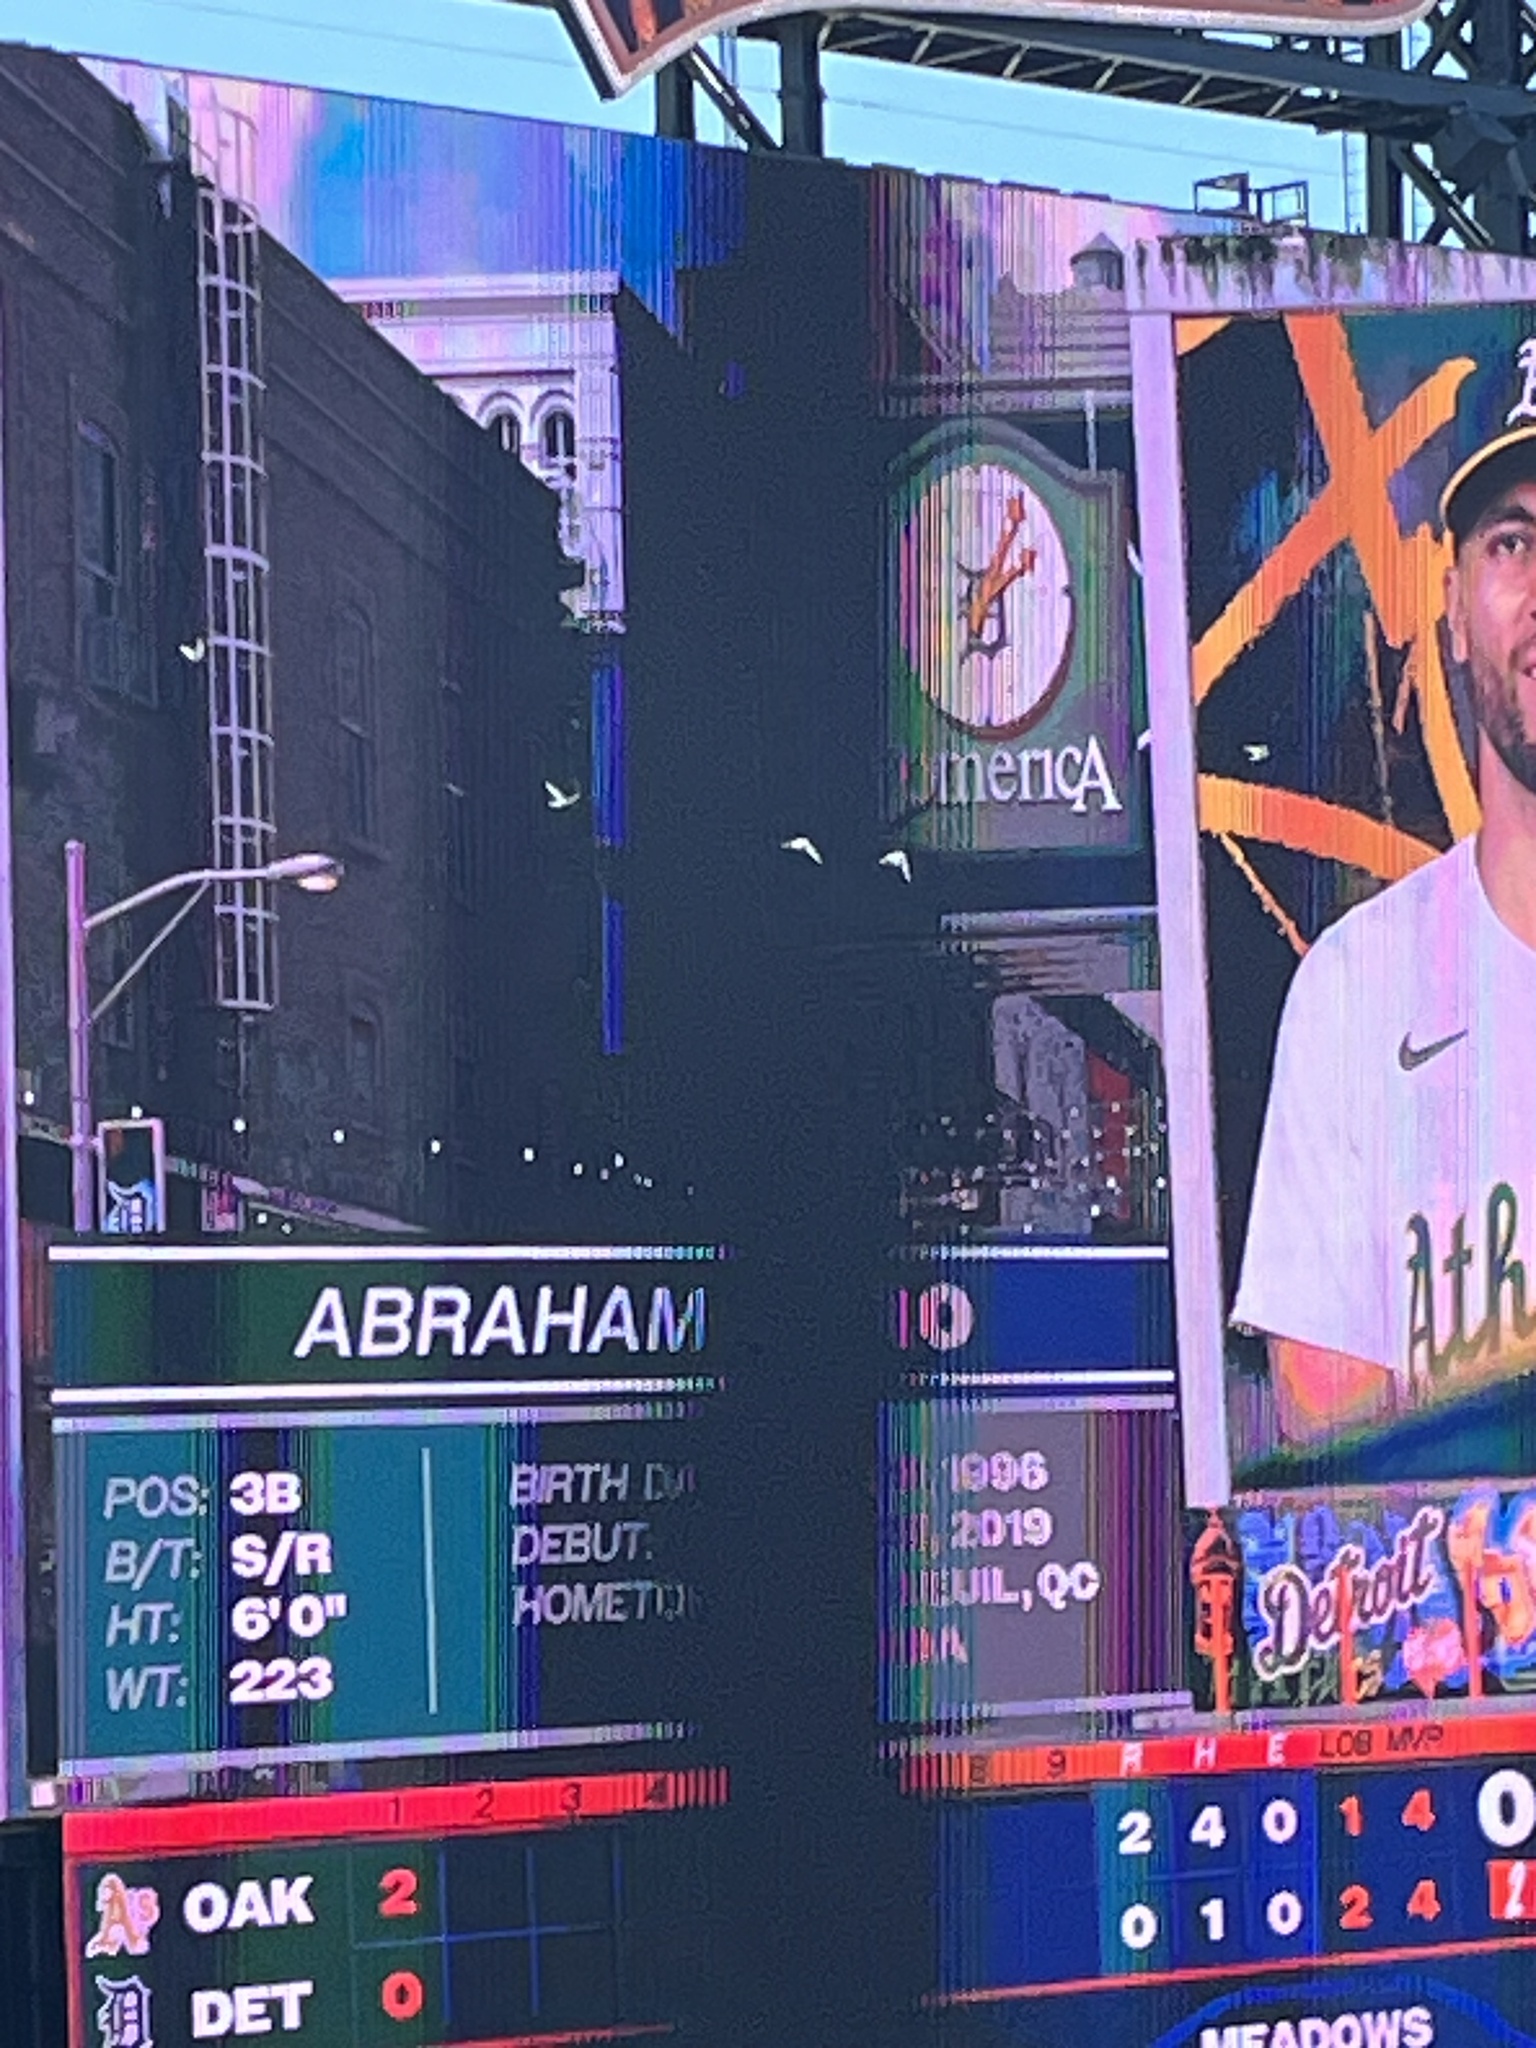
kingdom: Animalia
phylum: Chordata
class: Aves
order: Columbiformes
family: Columbidae
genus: Columba
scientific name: Columba livia
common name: Rock pigeon
